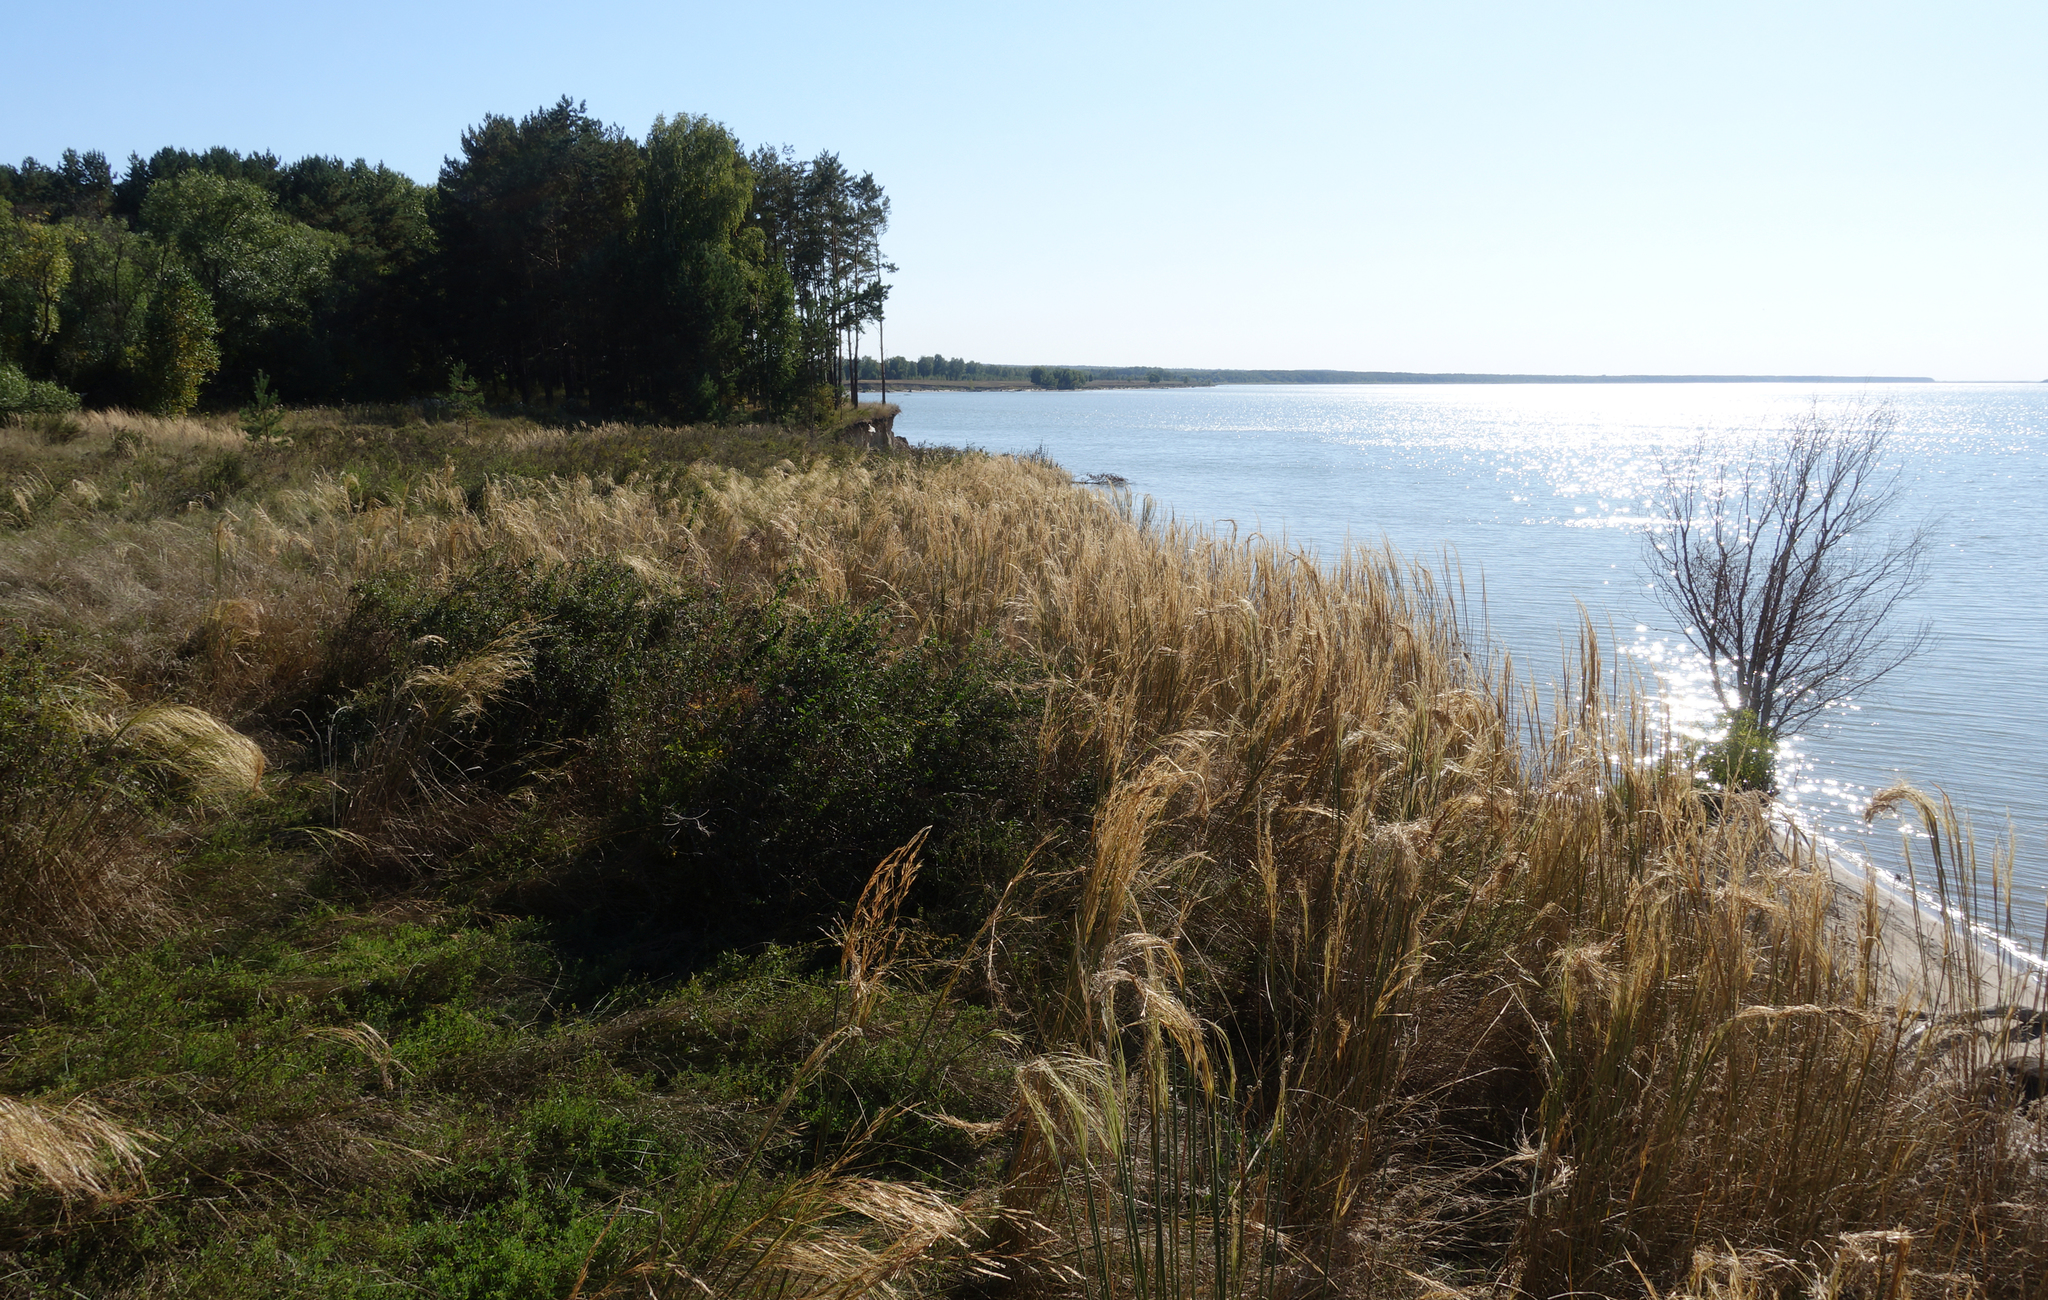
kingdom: Plantae
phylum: Tracheophyta
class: Liliopsida
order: Poales
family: Poaceae
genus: Stipa
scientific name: Stipa capillata
